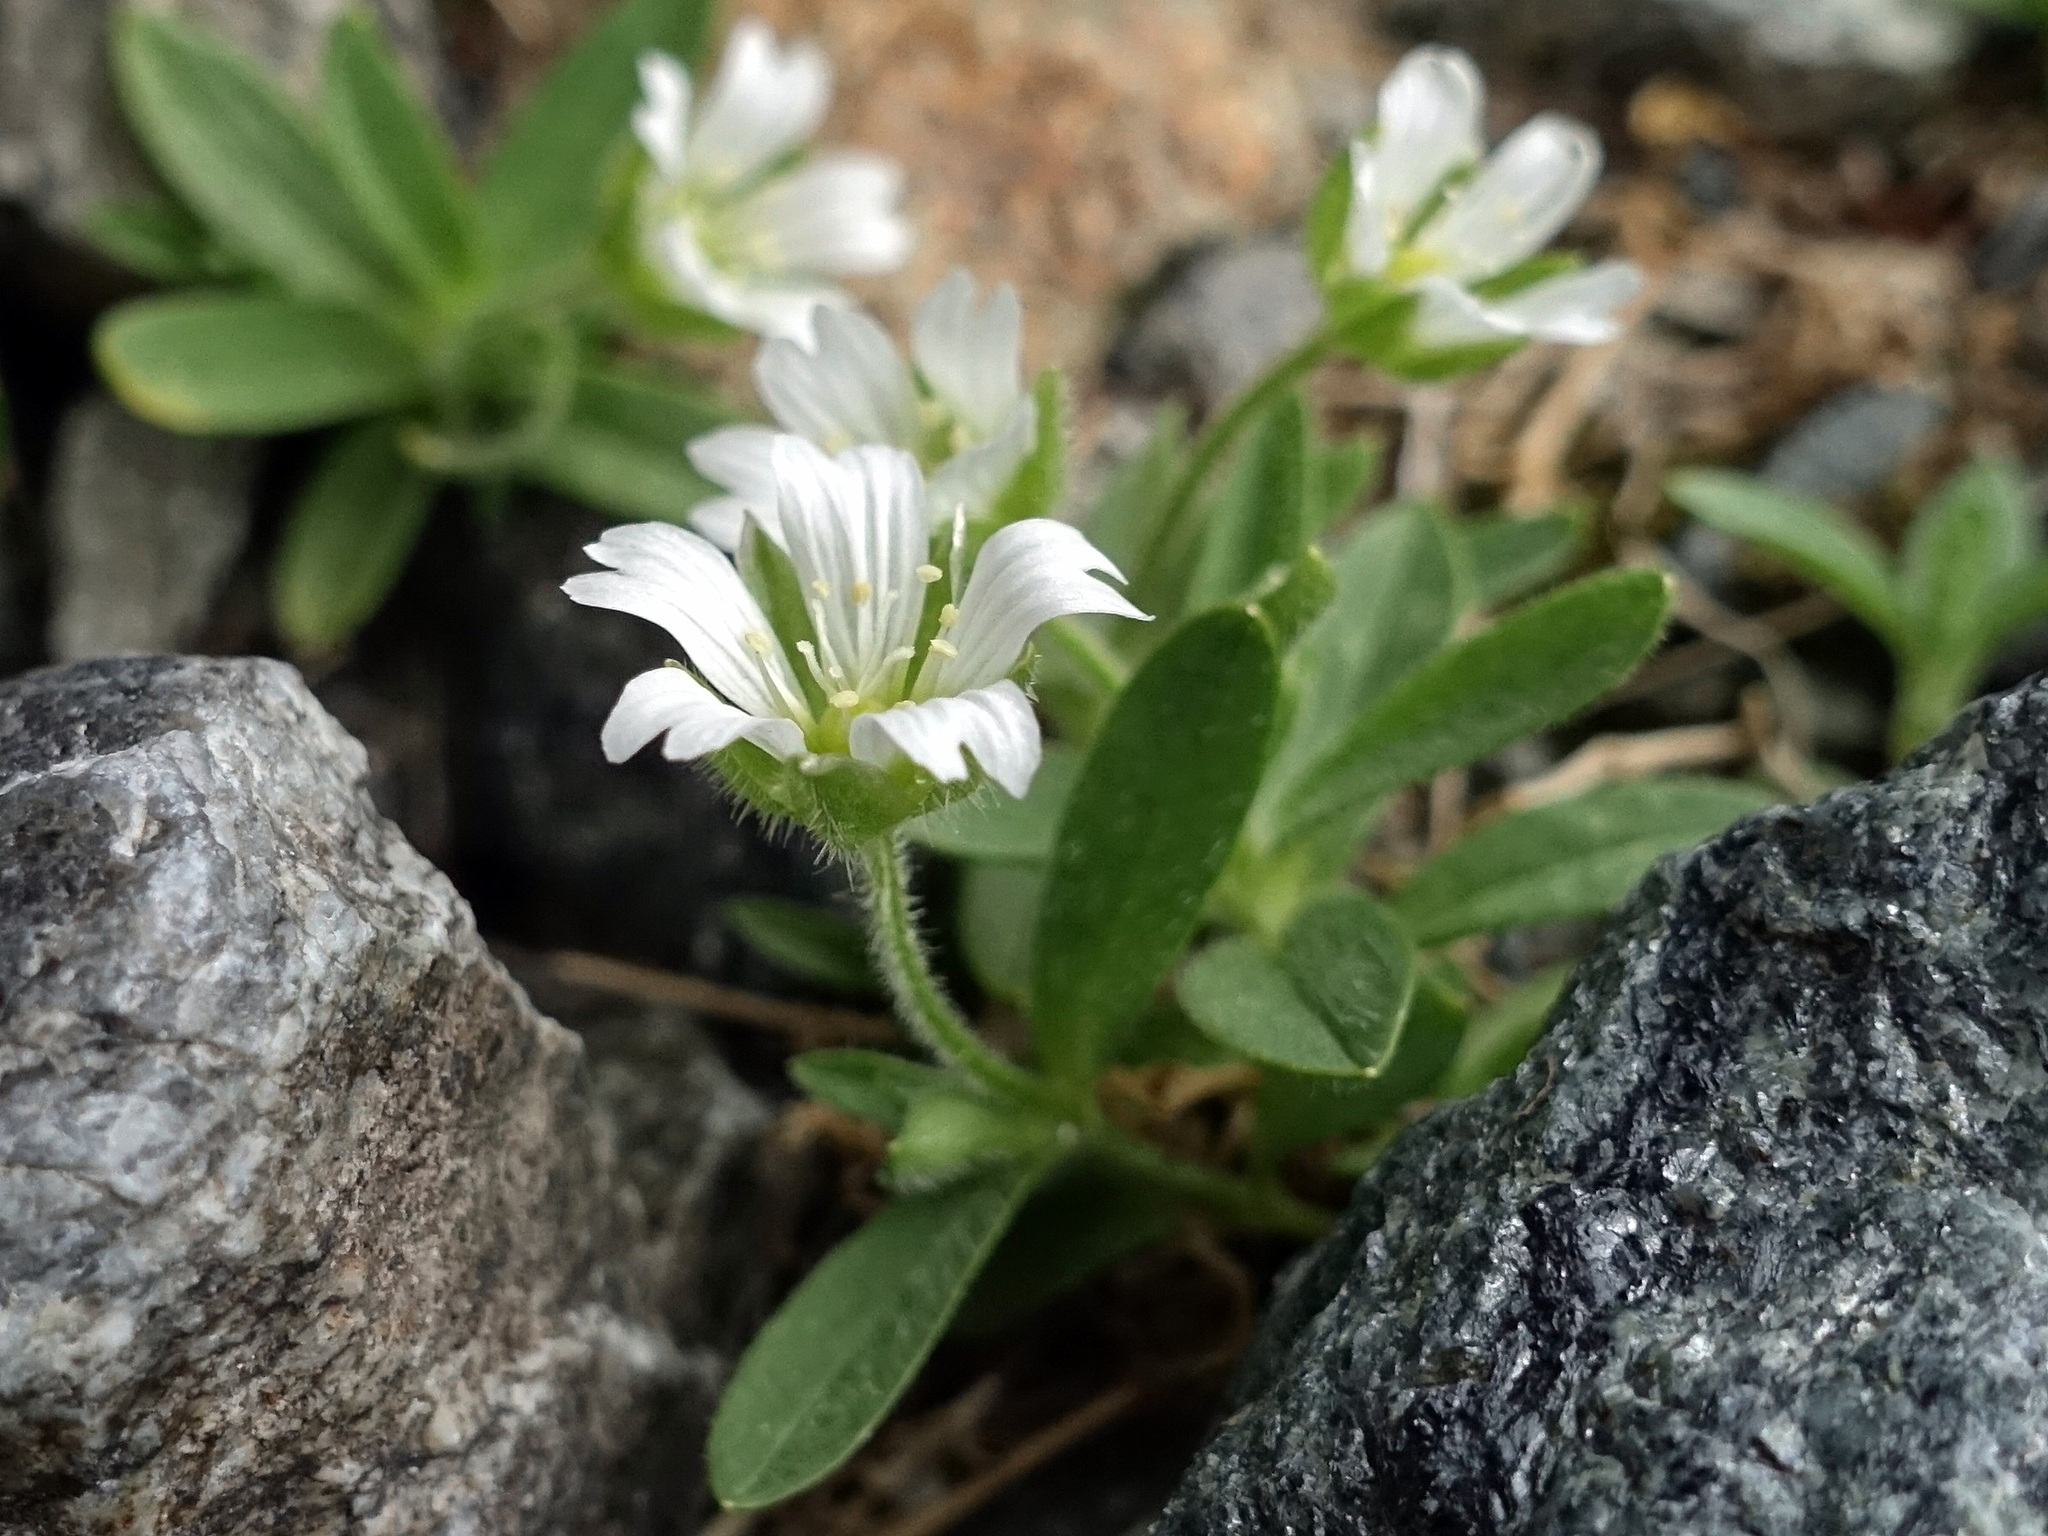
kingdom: Plantae
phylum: Tracheophyta
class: Magnoliopsida
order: Caryophyllales
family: Caryophyllaceae
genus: Cerastium
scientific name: Cerastium pedunculatum
